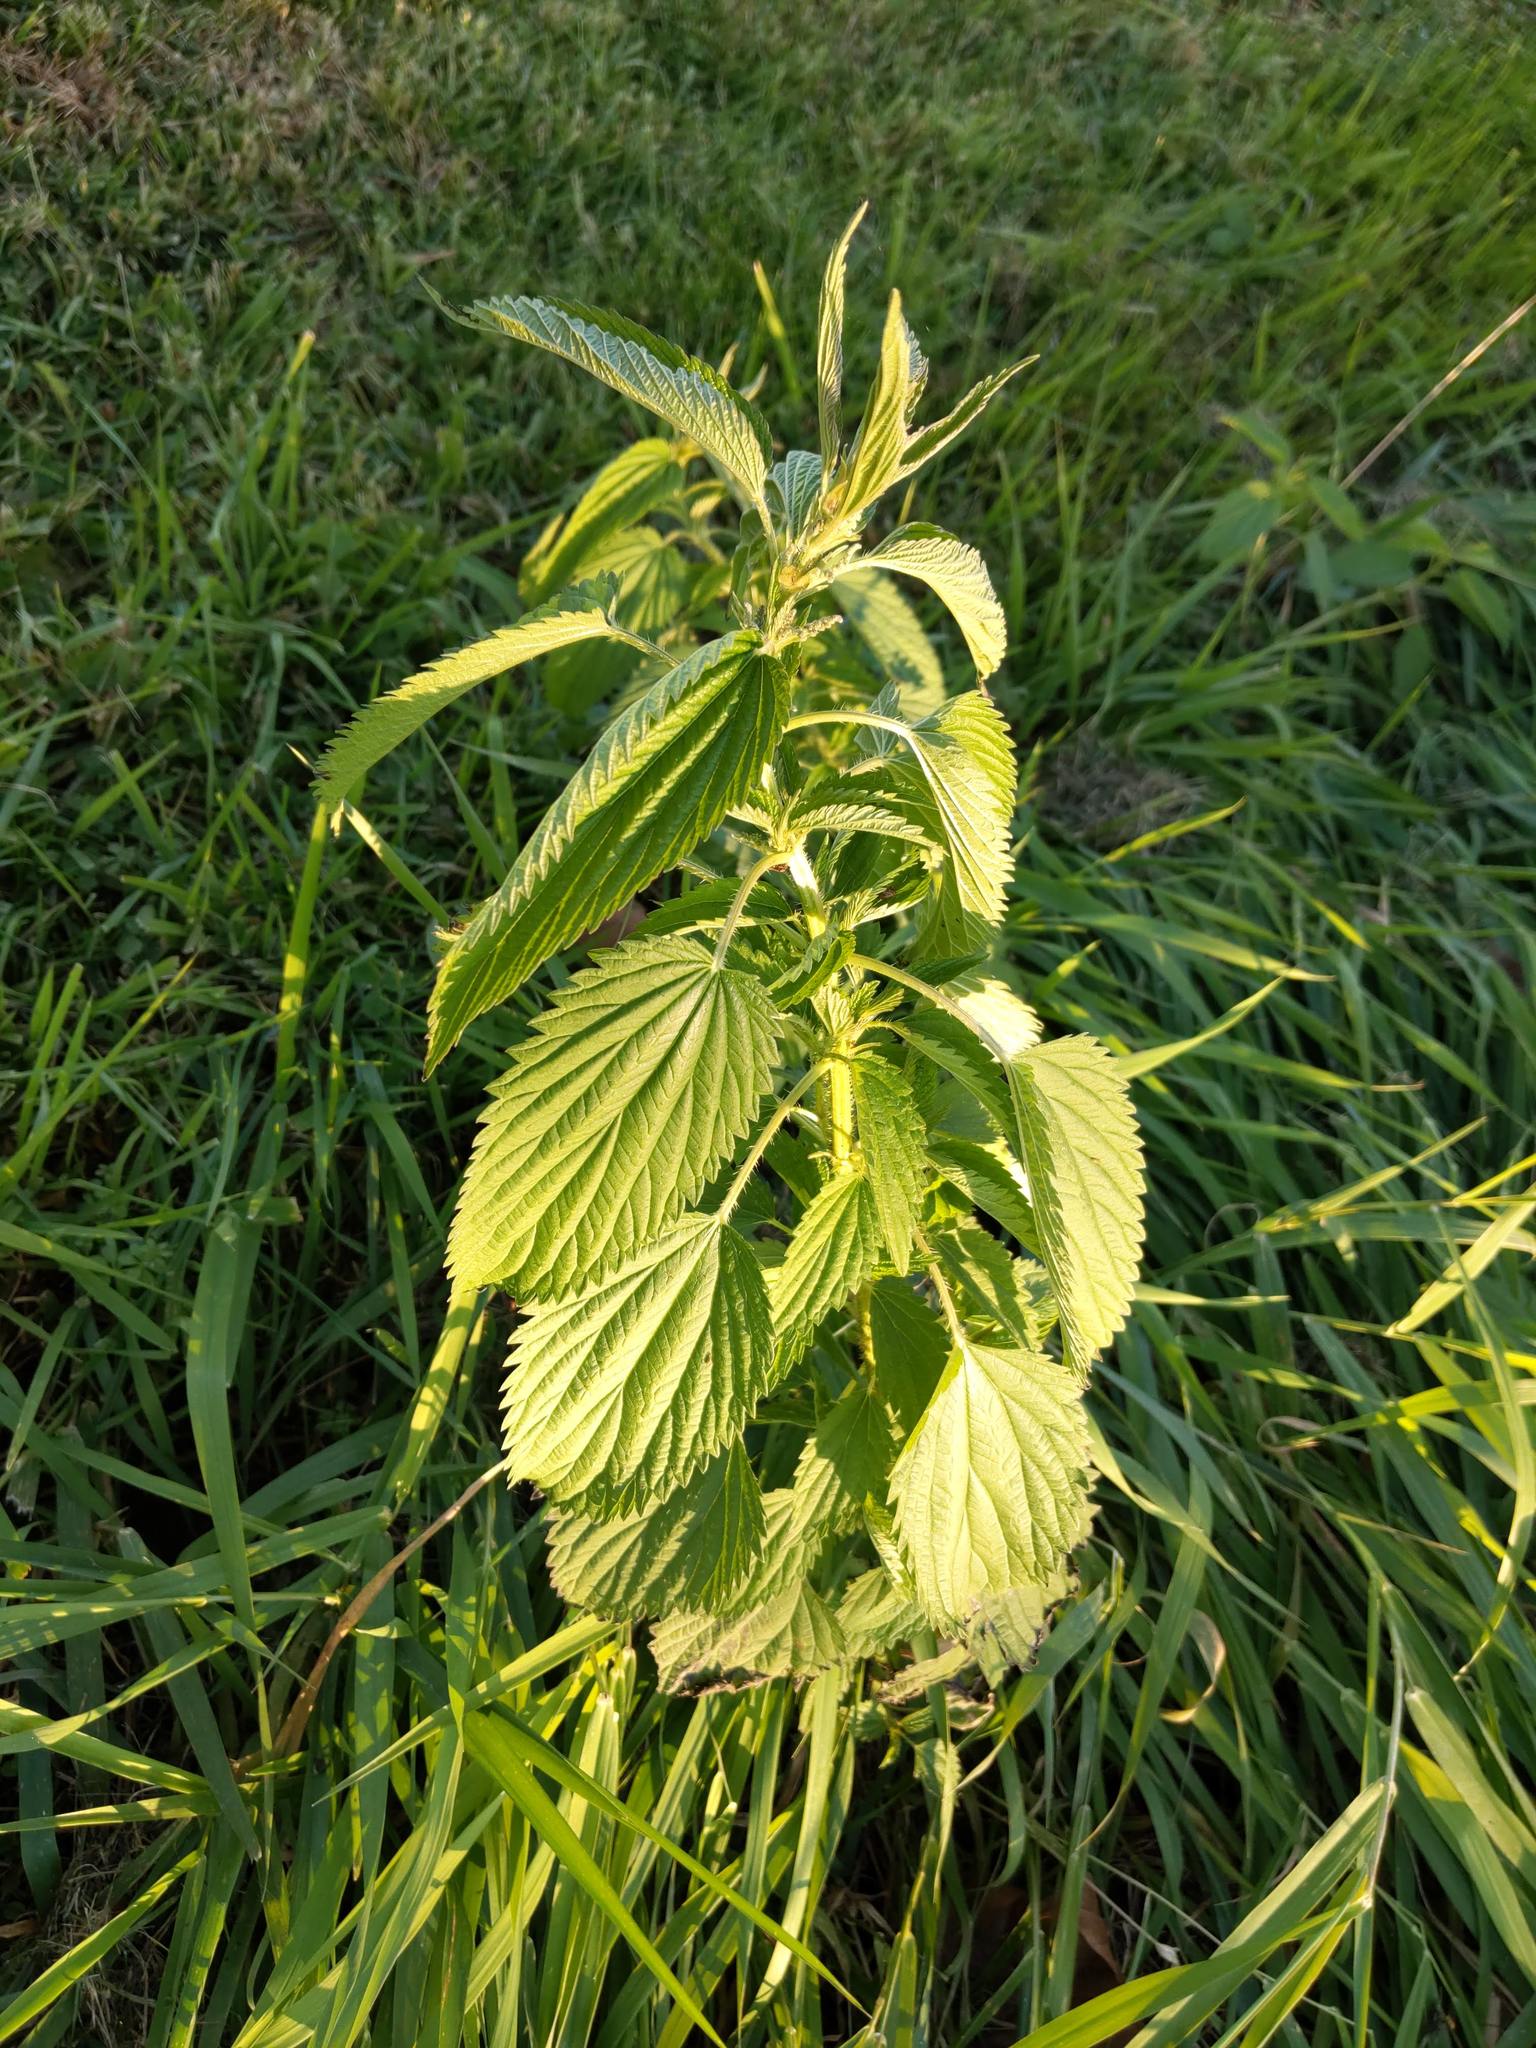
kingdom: Plantae
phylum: Tracheophyta
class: Magnoliopsida
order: Rosales
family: Urticaceae
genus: Urtica
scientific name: Urtica dioica
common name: Common nettle
